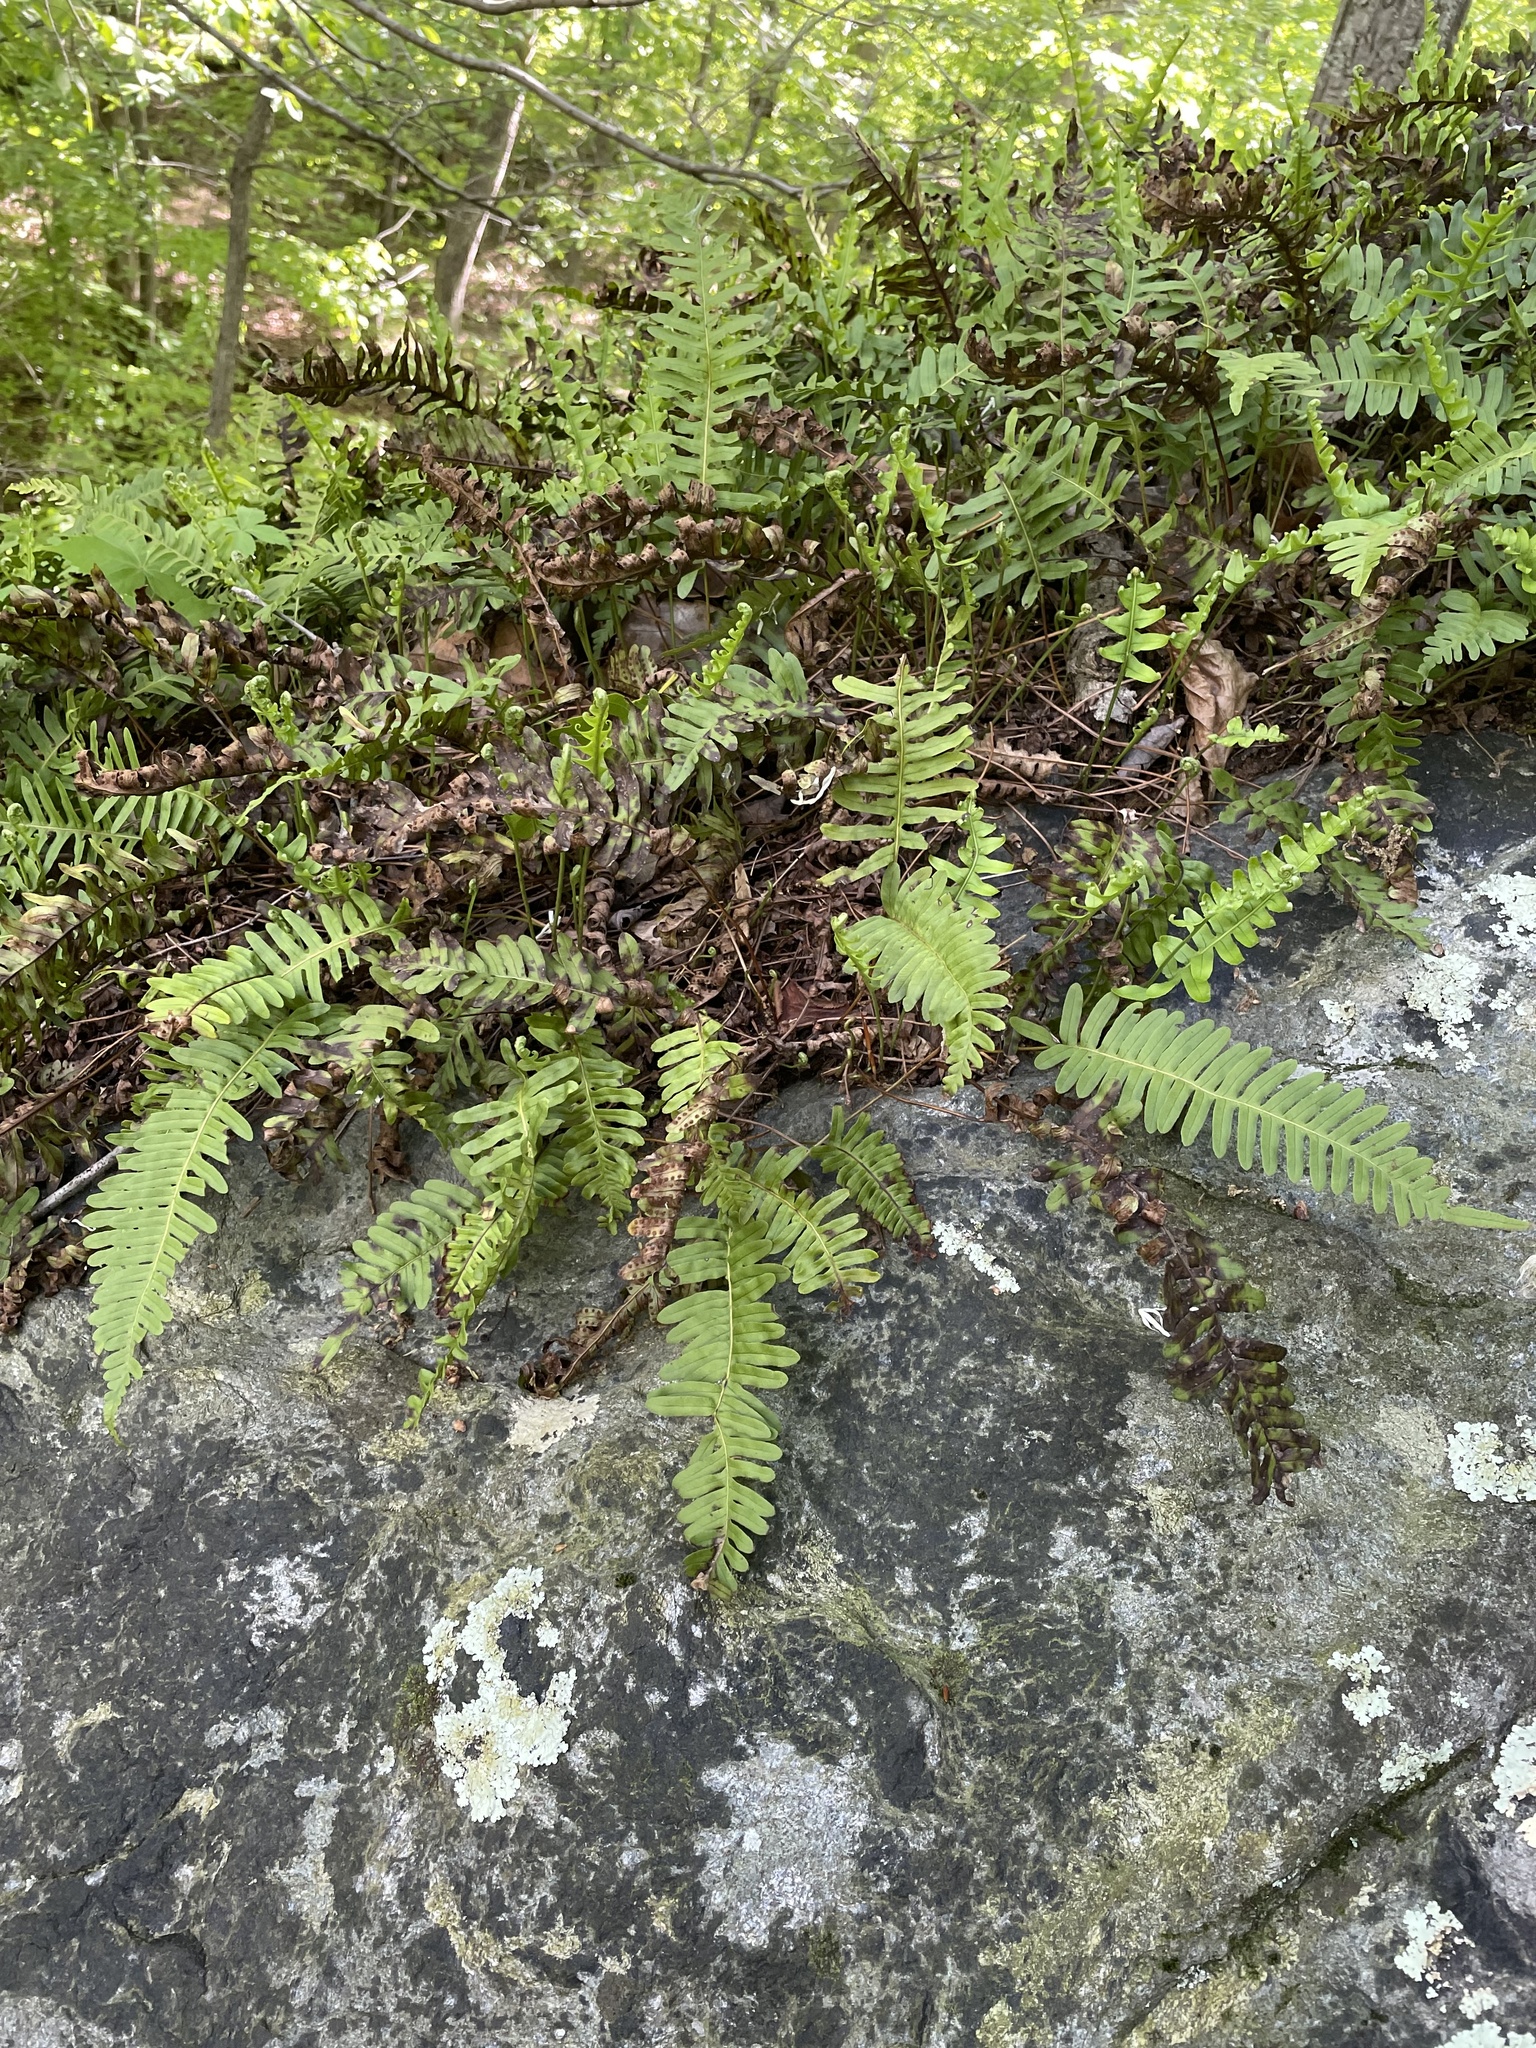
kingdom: Plantae
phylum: Tracheophyta
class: Polypodiopsida
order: Polypodiales
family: Polypodiaceae
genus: Polypodium
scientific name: Polypodium virginianum
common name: American wall fern
